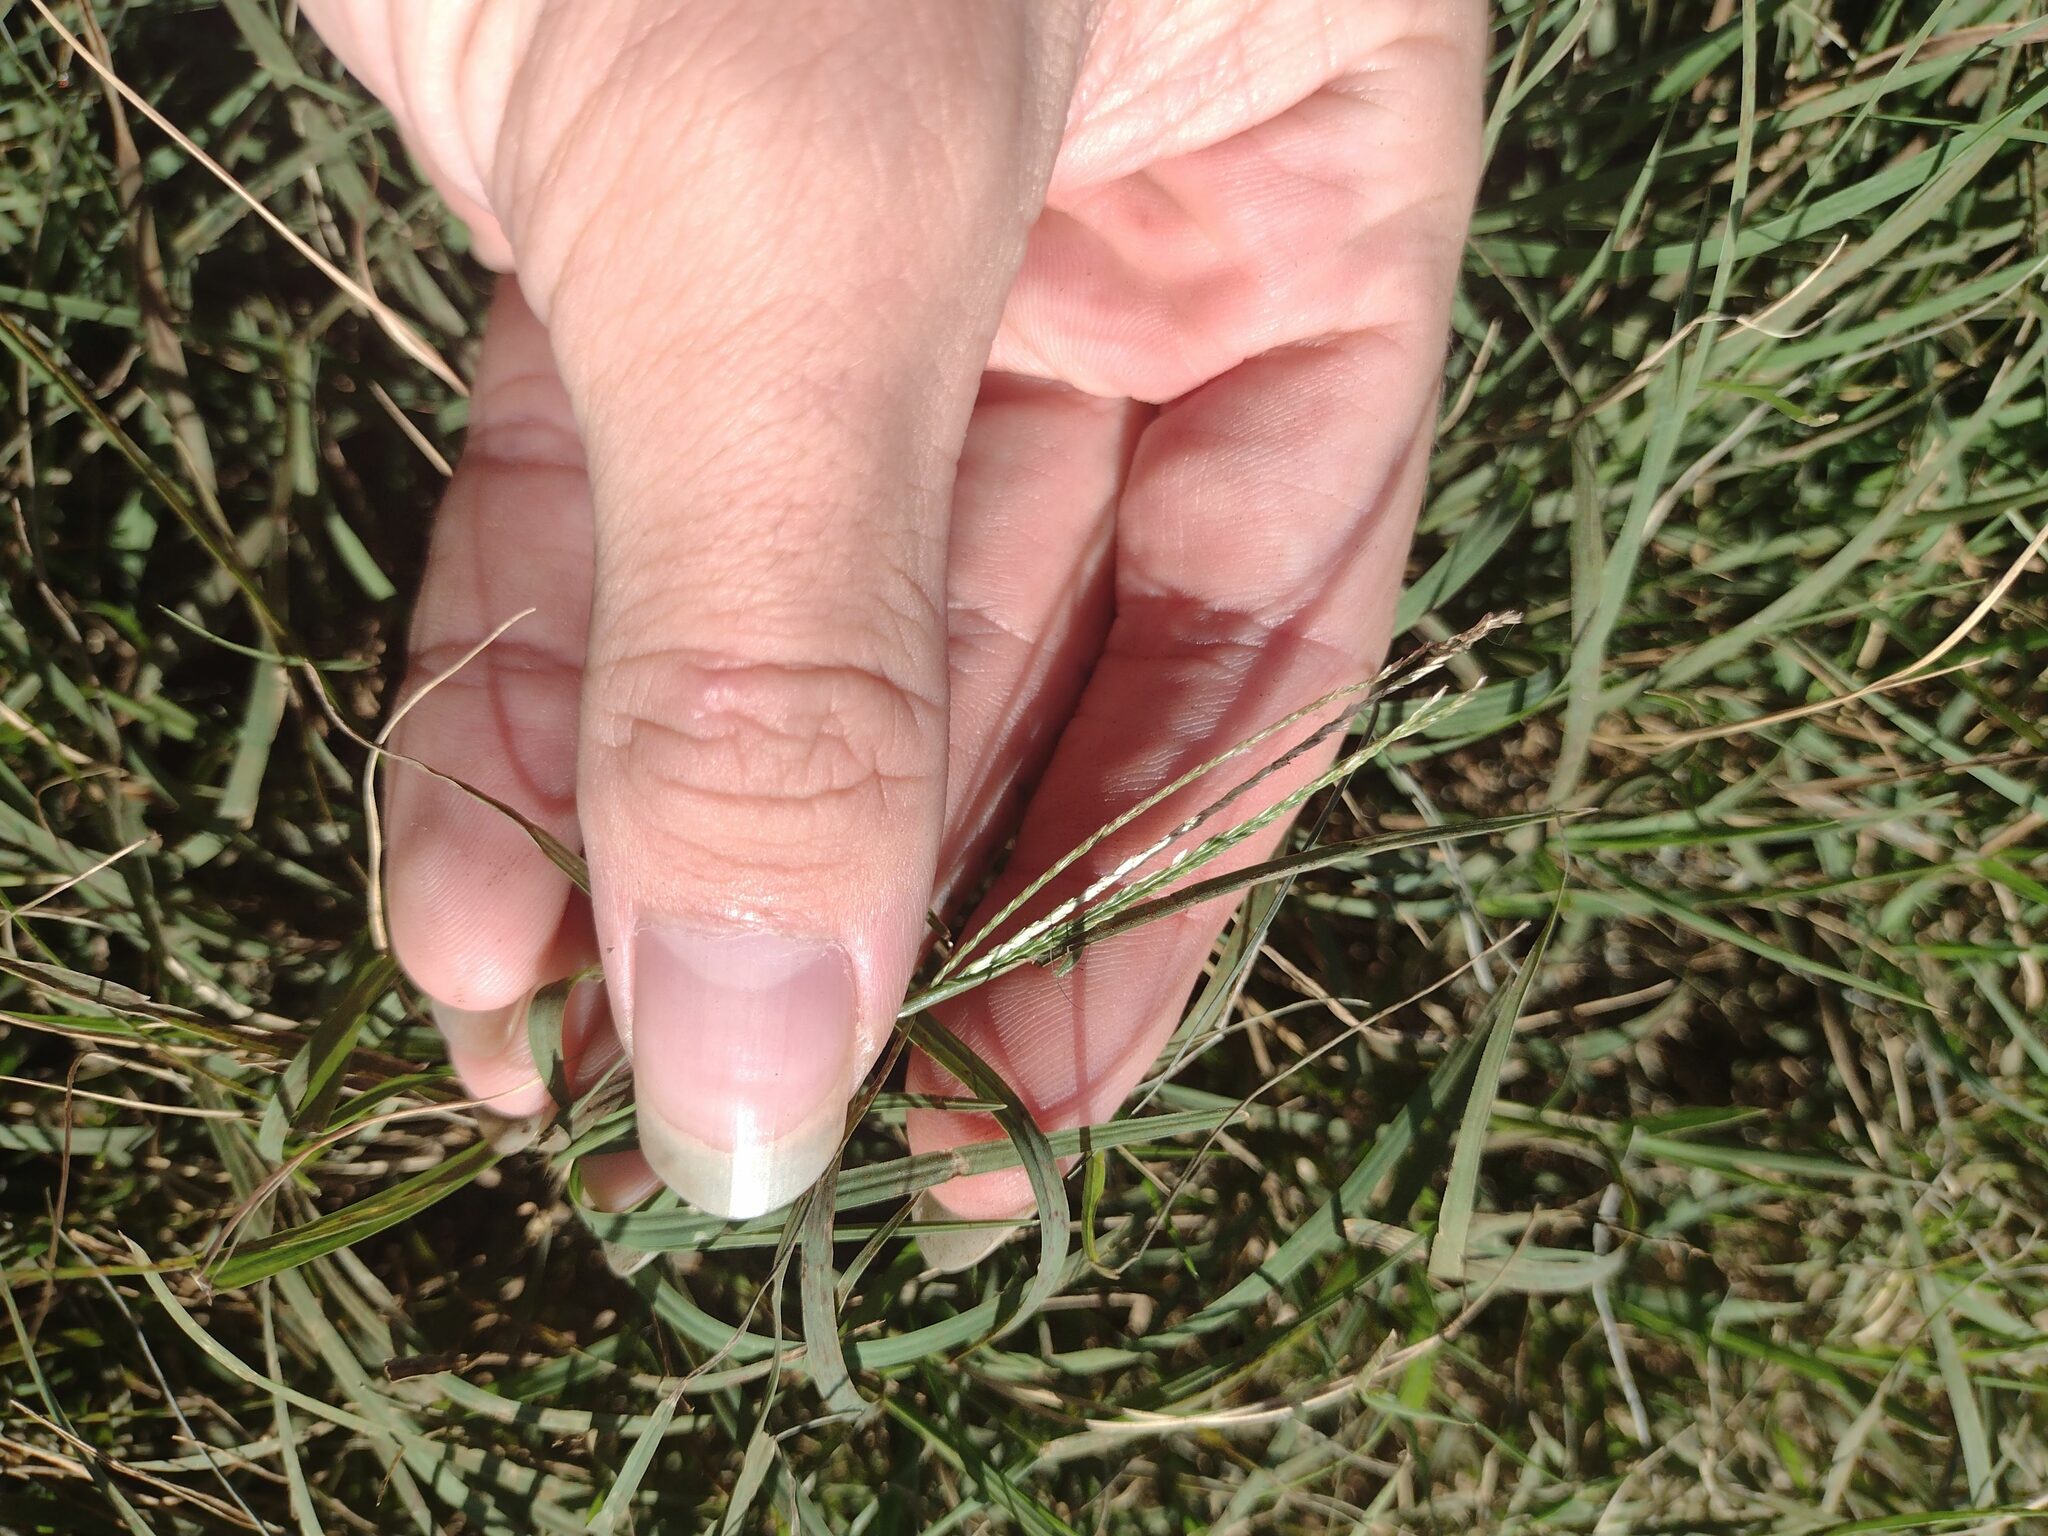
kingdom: Plantae
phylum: Tracheophyta
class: Liliopsida
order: Poales
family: Poaceae
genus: Cynodon
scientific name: Cynodon dactylon
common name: Bermuda grass
